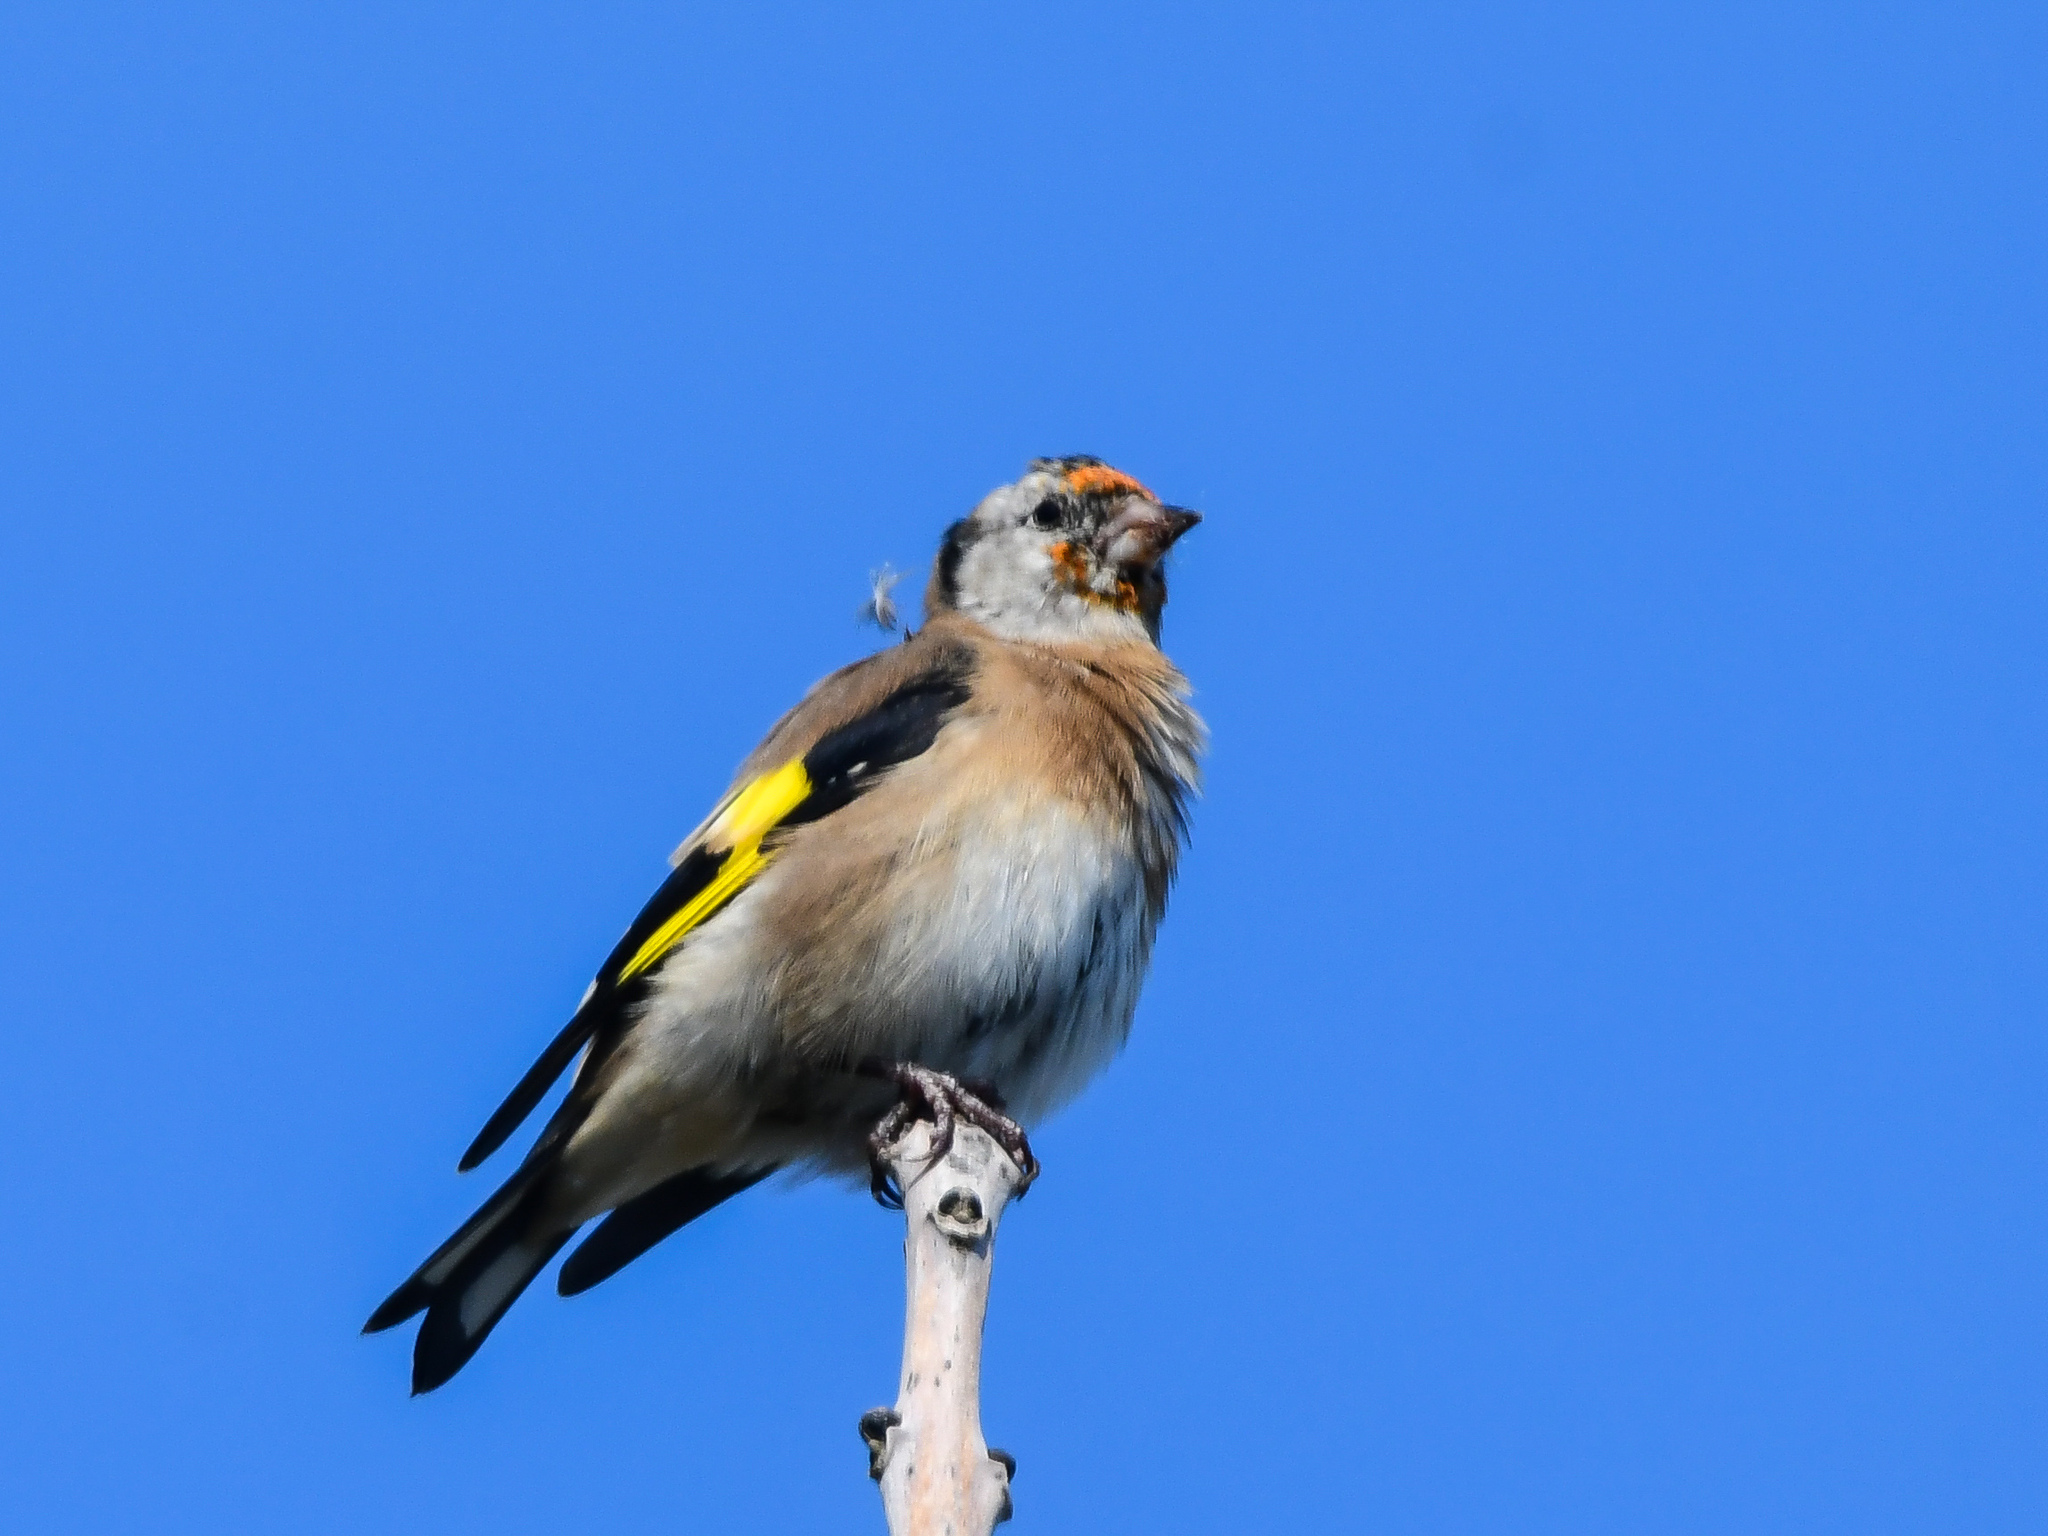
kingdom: Animalia
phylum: Chordata
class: Aves
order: Passeriformes
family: Fringillidae
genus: Carduelis
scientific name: Carduelis carduelis
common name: European goldfinch
